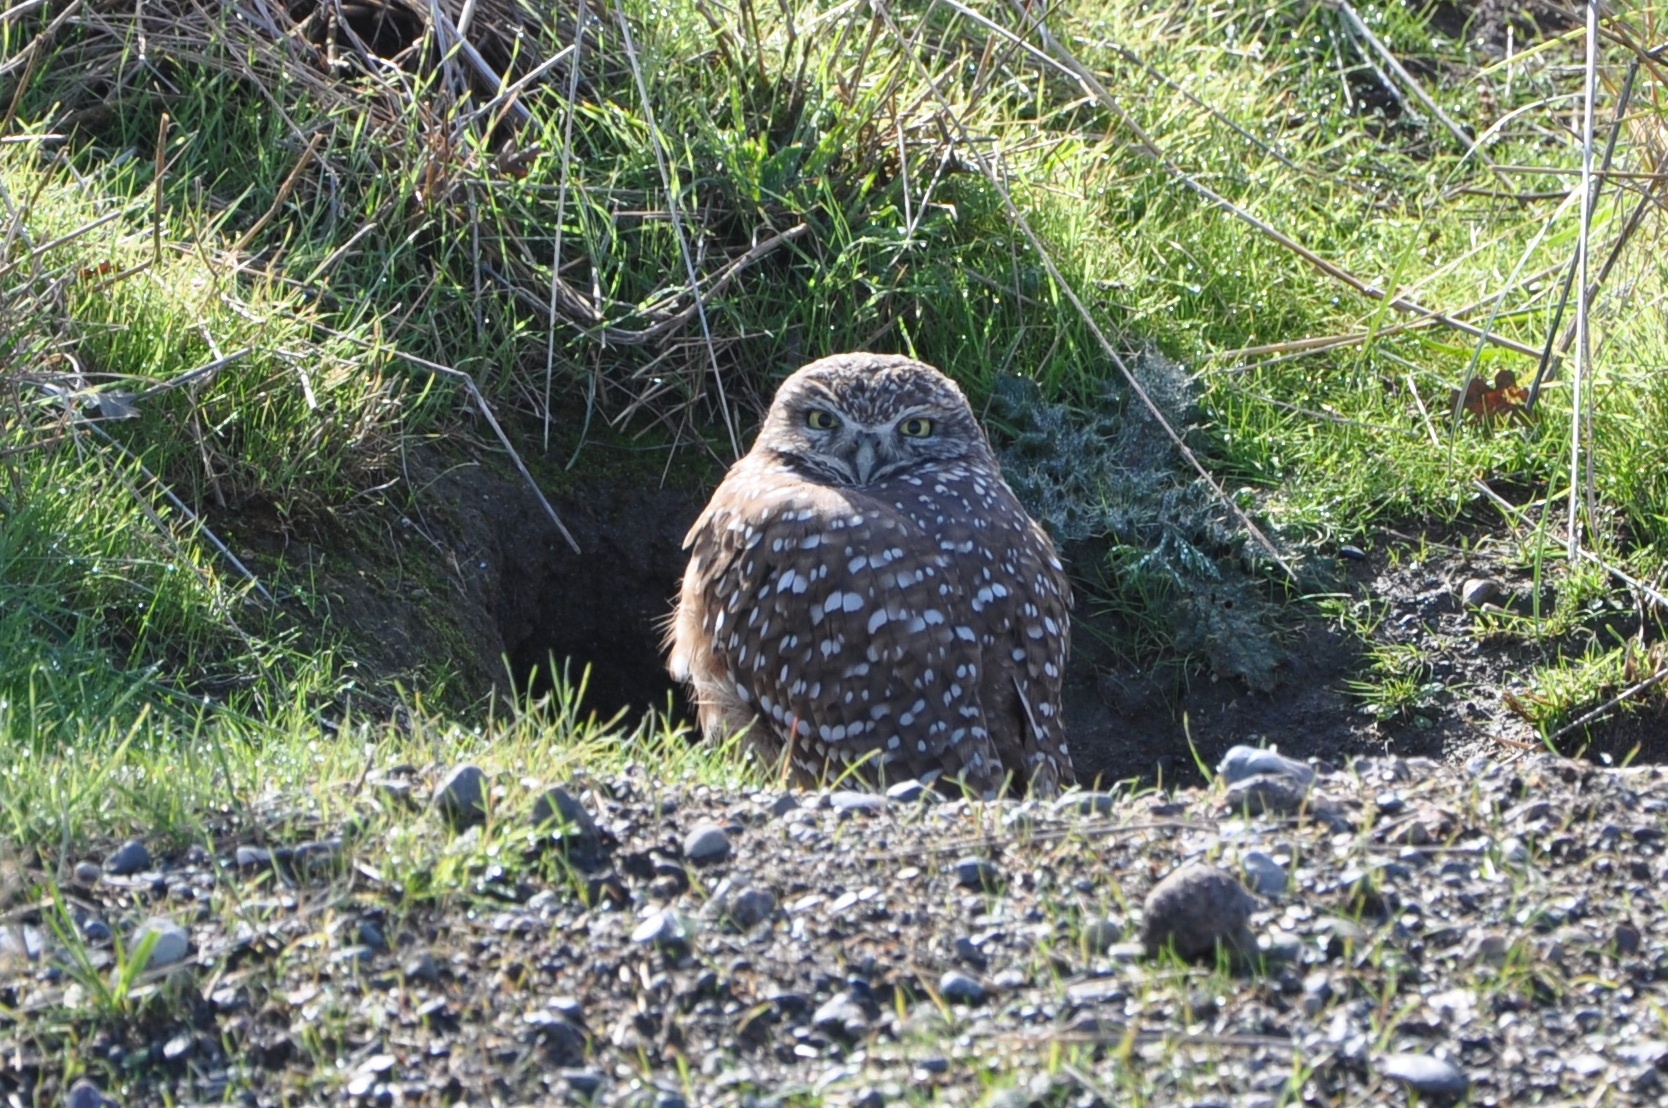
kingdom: Animalia
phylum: Chordata
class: Aves
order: Strigiformes
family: Strigidae
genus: Athene
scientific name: Athene cunicularia
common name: Burrowing owl
